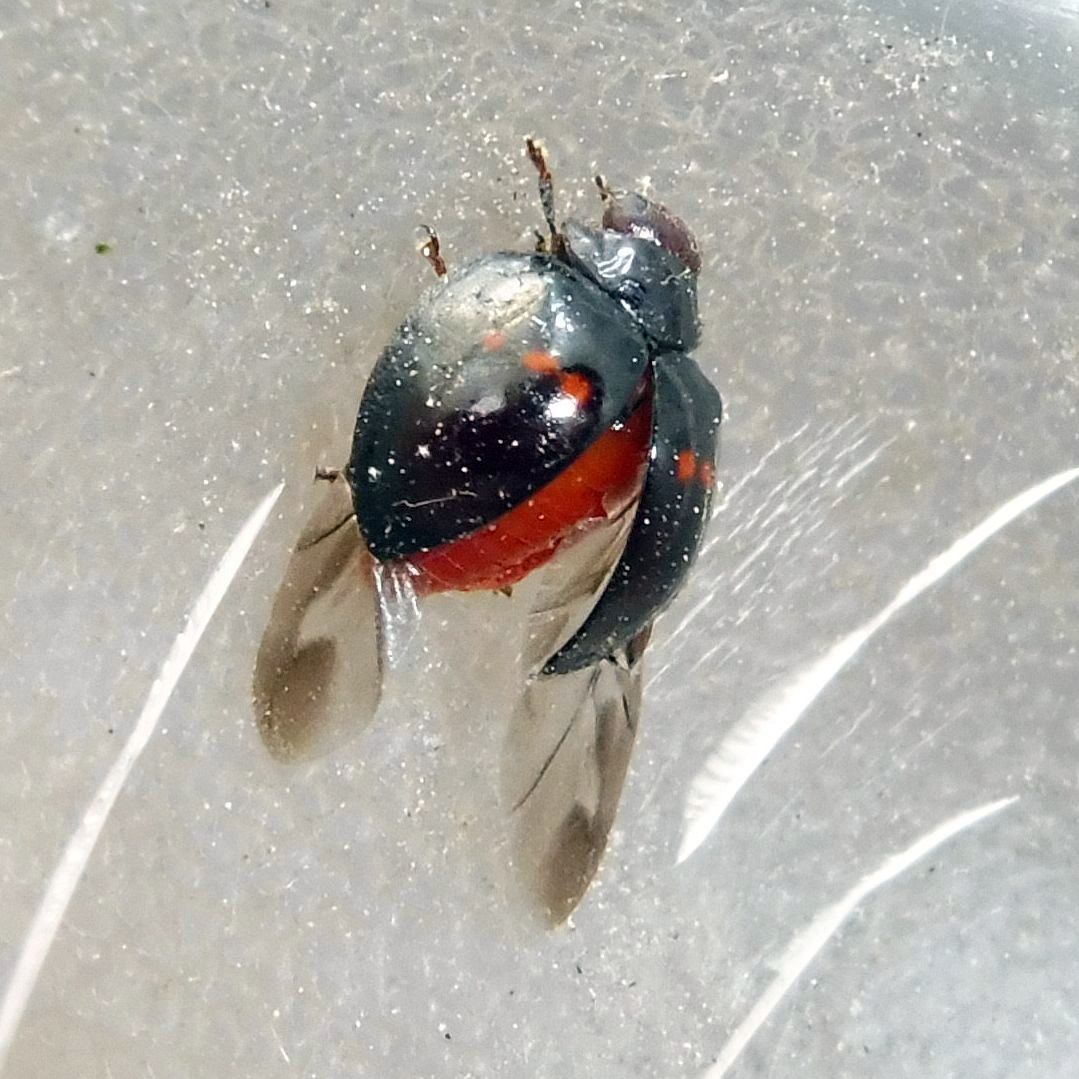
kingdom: Animalia
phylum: Arthropoda
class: Insecta
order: Coleoptera
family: Coccinellidae
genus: Chilocorus
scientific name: Chilocorus bipustulatus
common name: Heather ladybird
